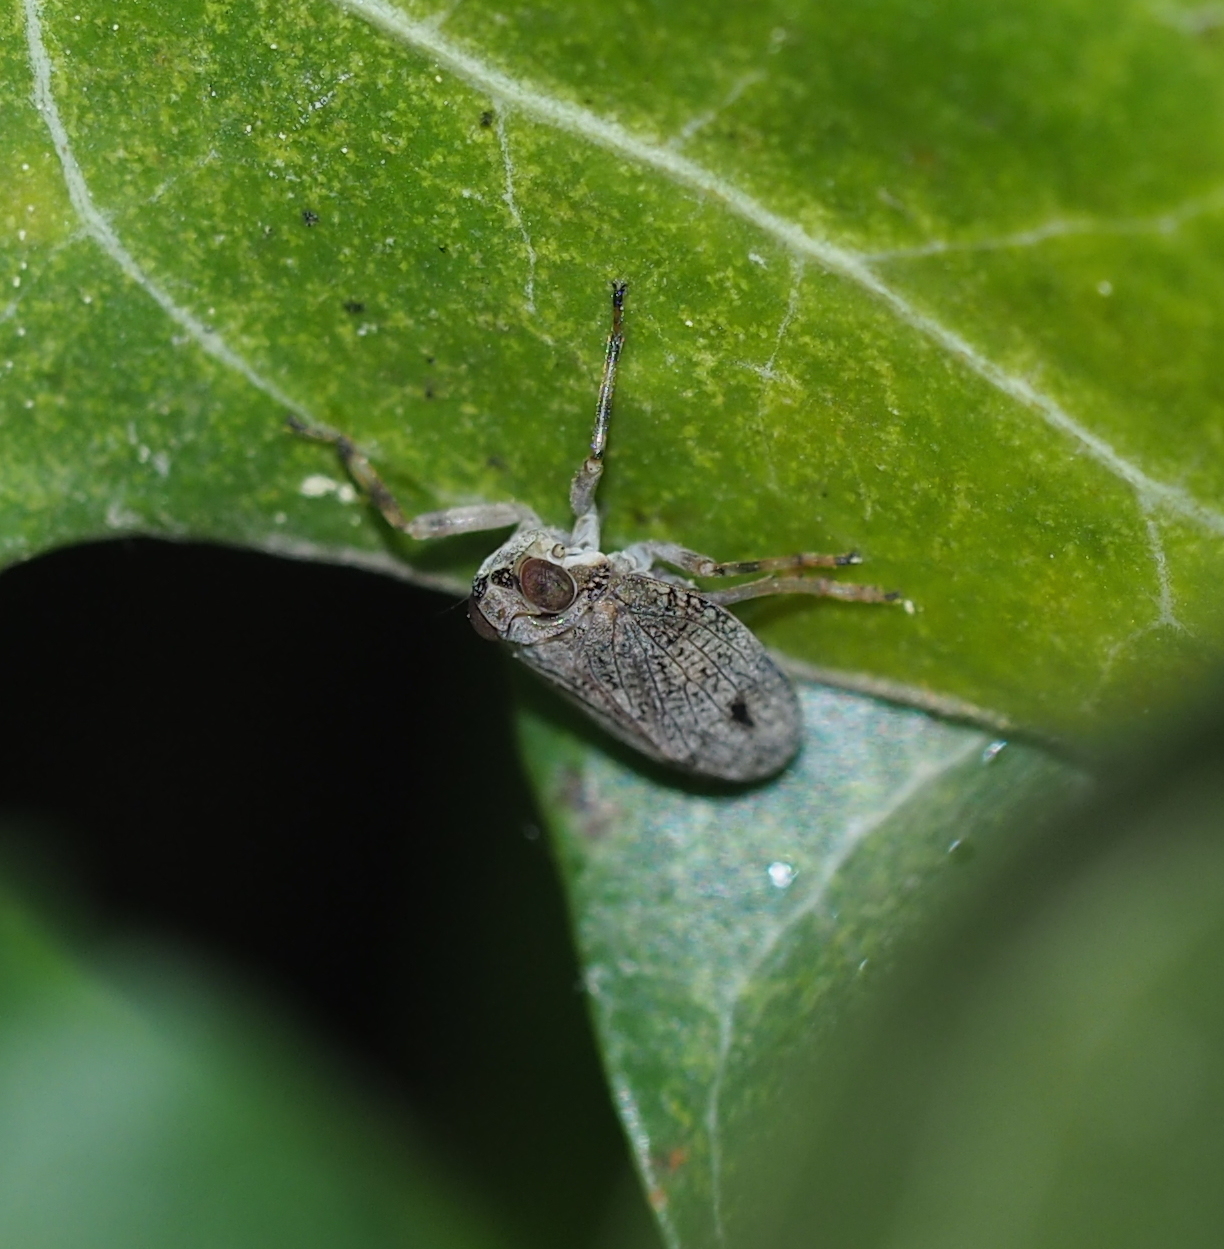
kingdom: Animalia
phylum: Arthropoda
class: Insecta
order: Hemiptera
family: Issidae
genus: Issus
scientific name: Issus coleoptratus
